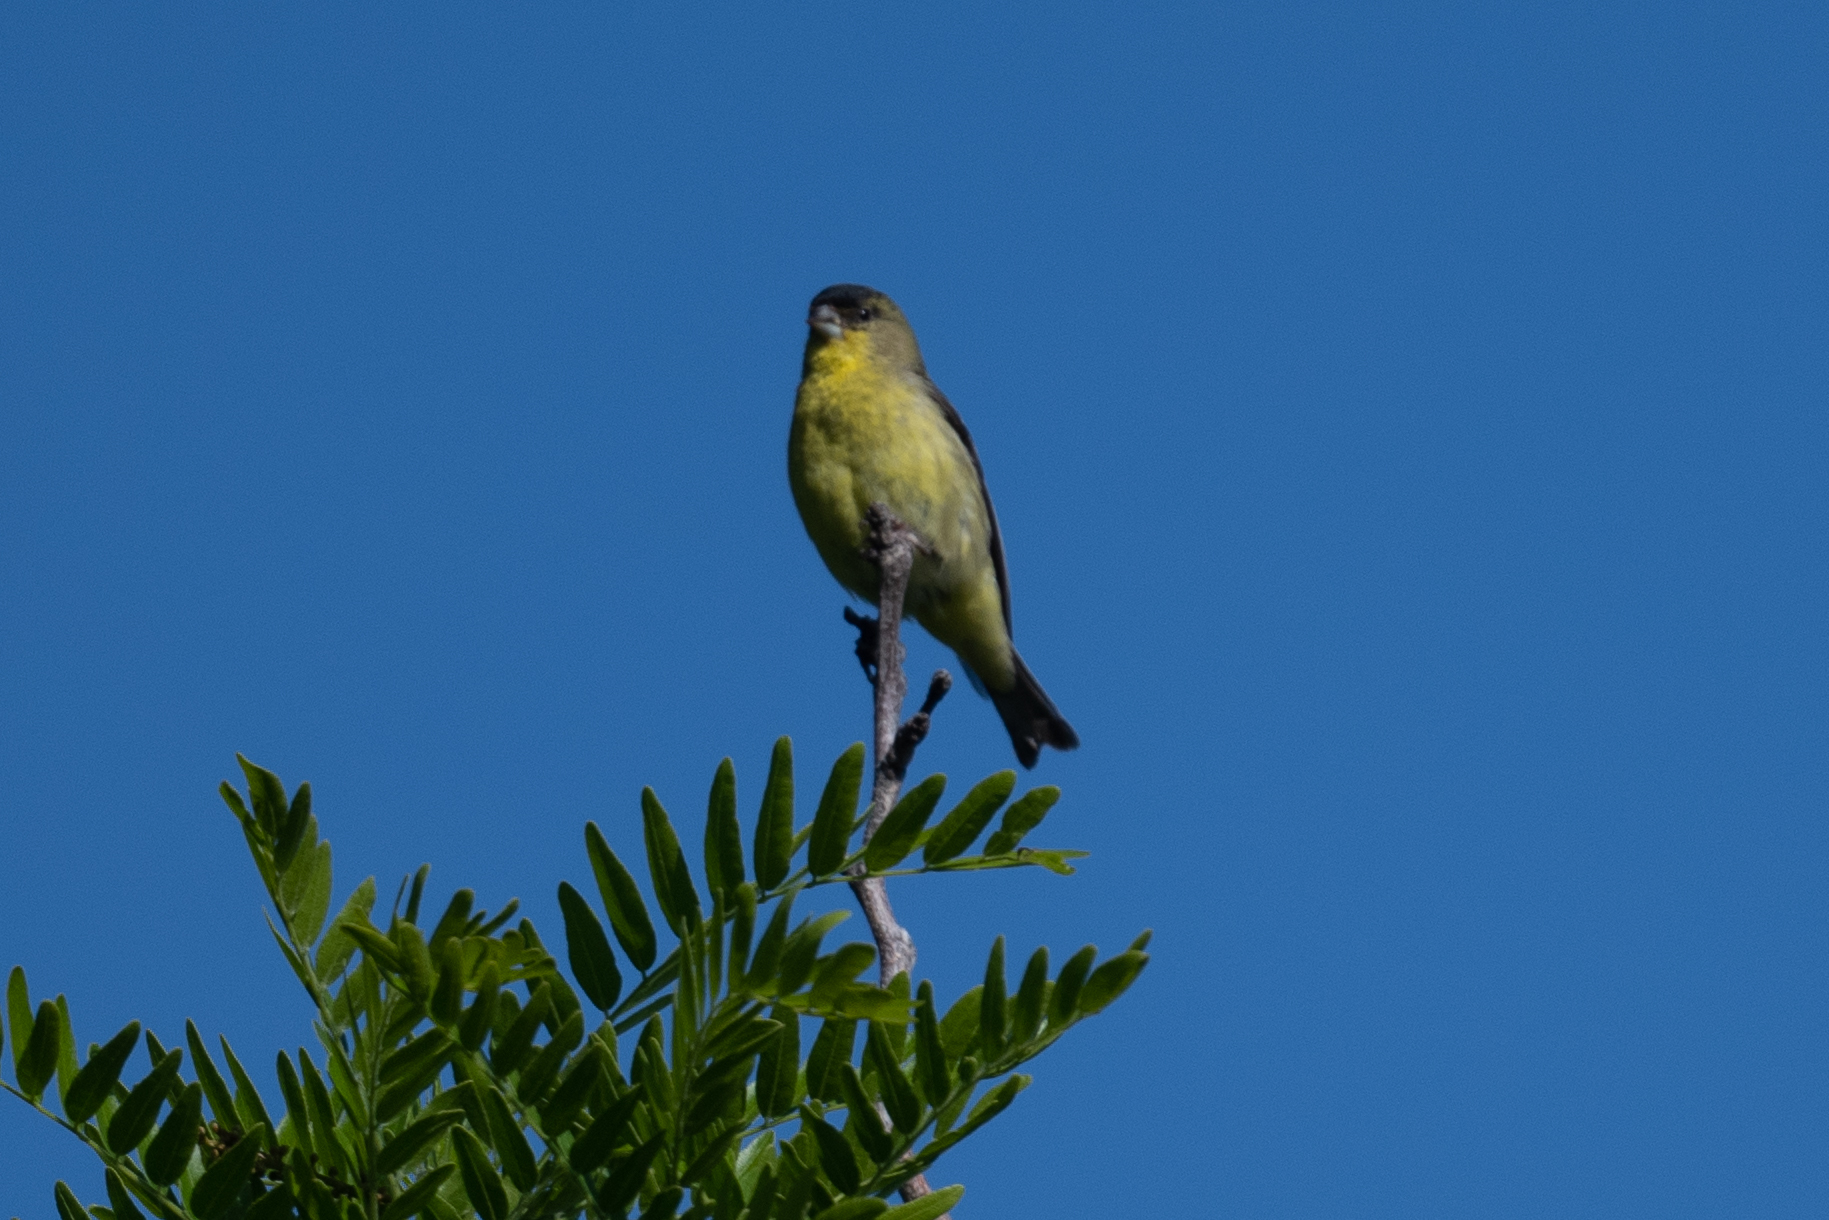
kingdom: Animalia
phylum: Chordata
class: Aves
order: Passeriformes
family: Fringillidae
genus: Spinus
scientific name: Spinus psaltria
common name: Lesser goldfinch
